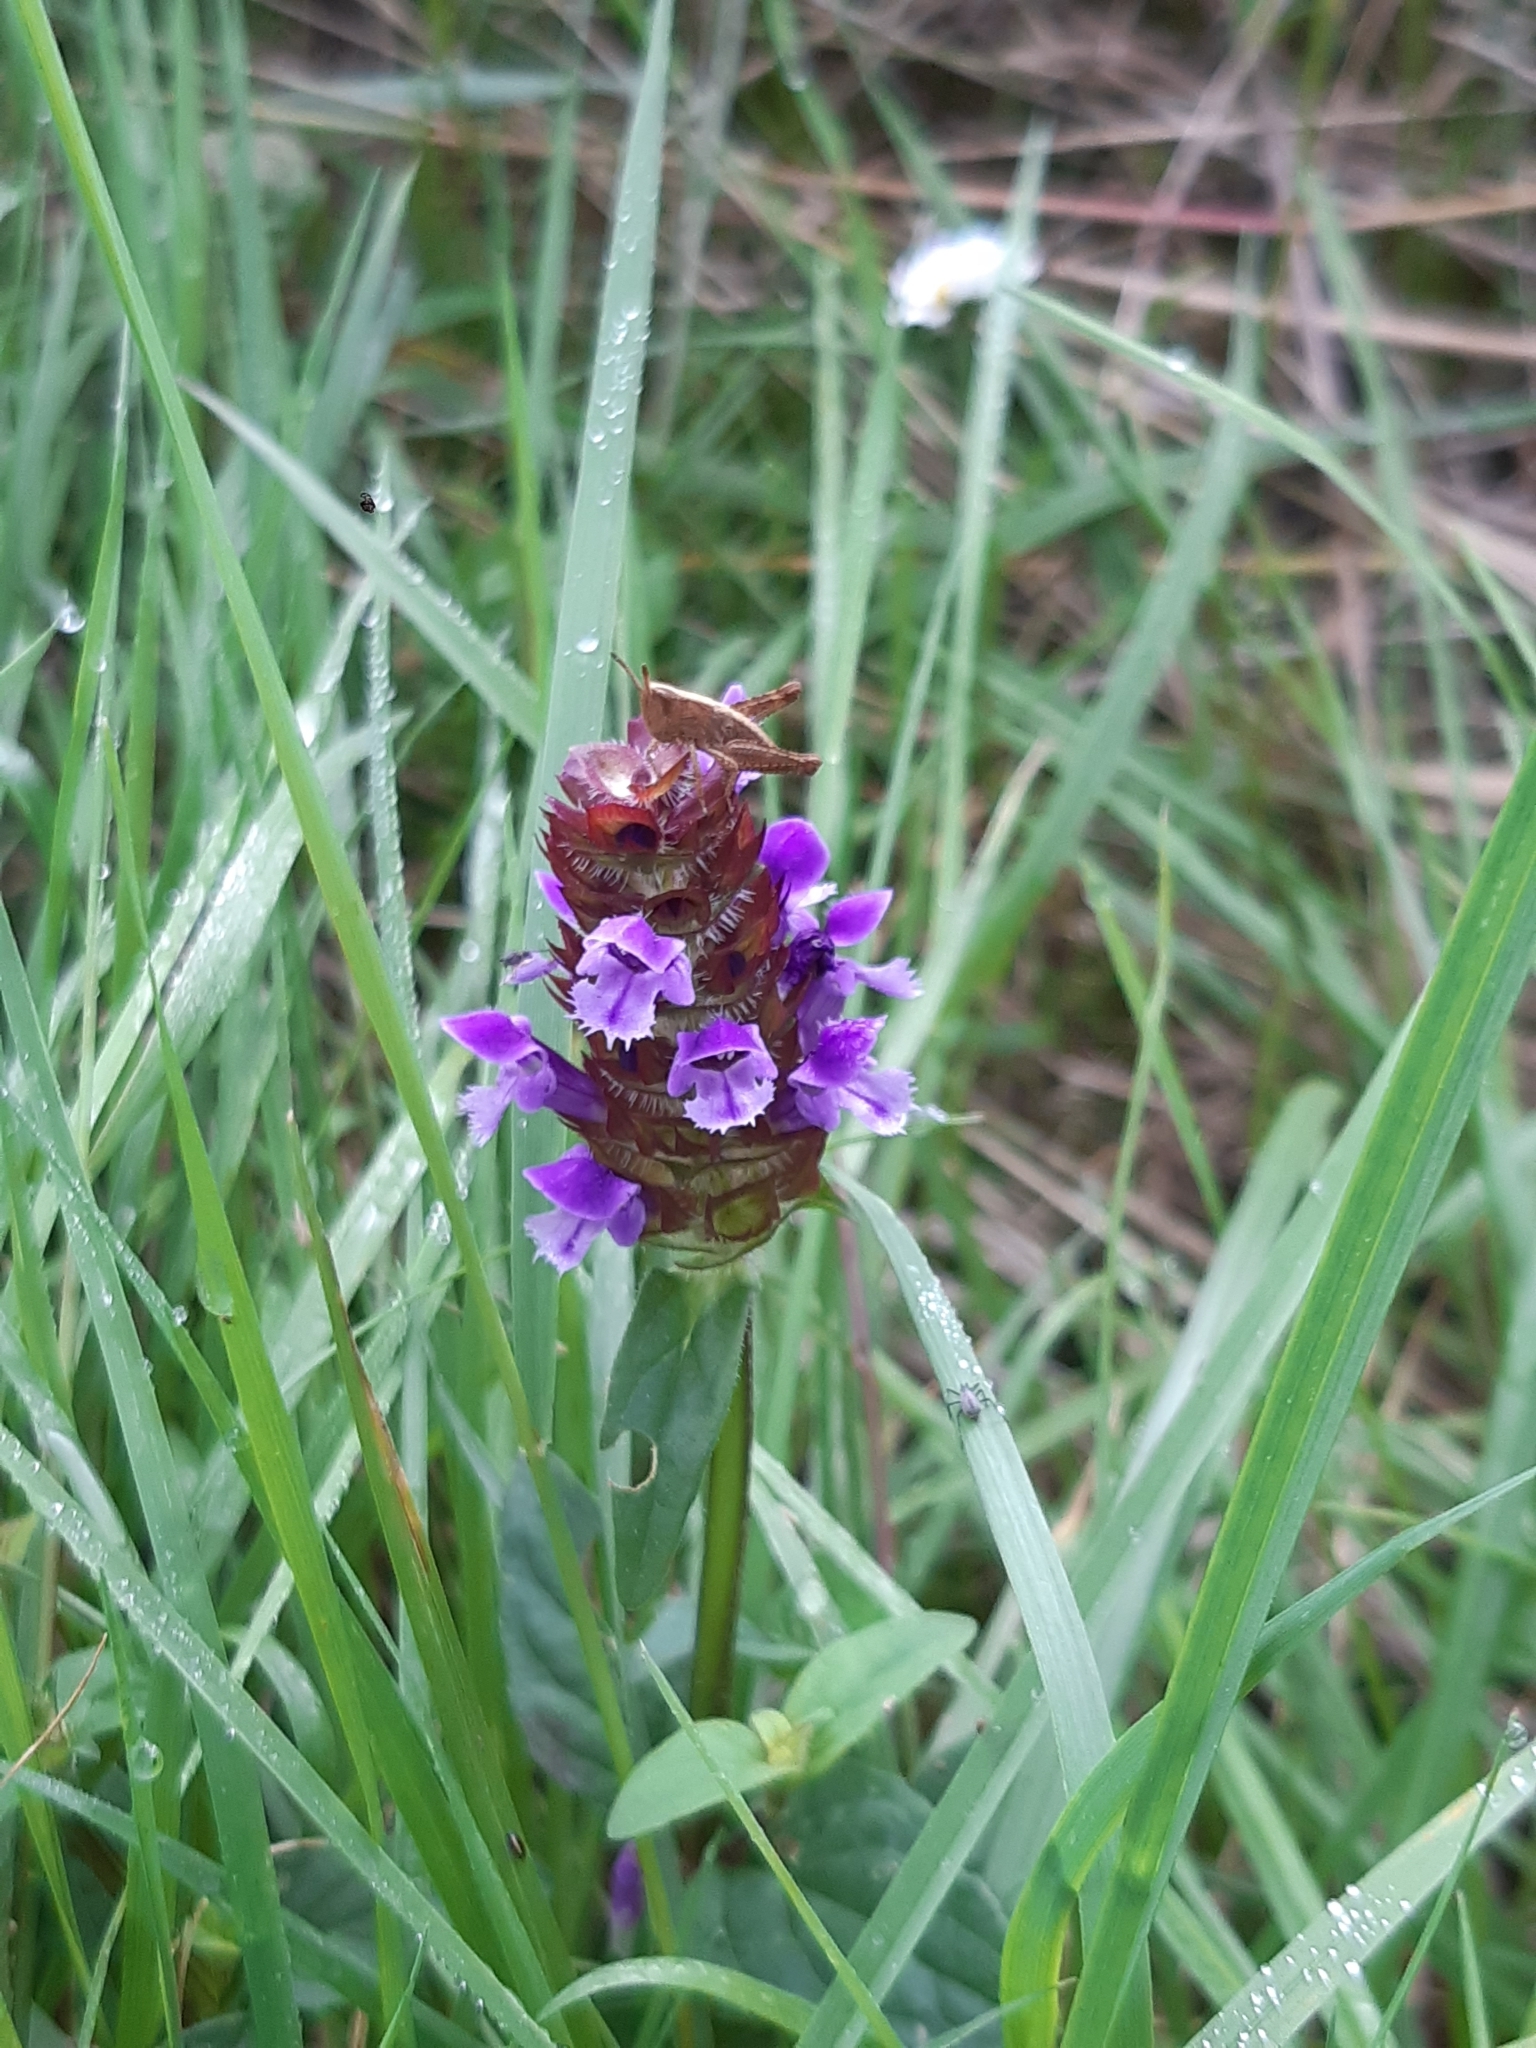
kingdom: Plantae
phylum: Tracheophyta
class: Magnoliopsida
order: Lamiales
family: Lamiaceae
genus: Prunella
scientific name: Prunella vulgaris
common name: Heal-all
